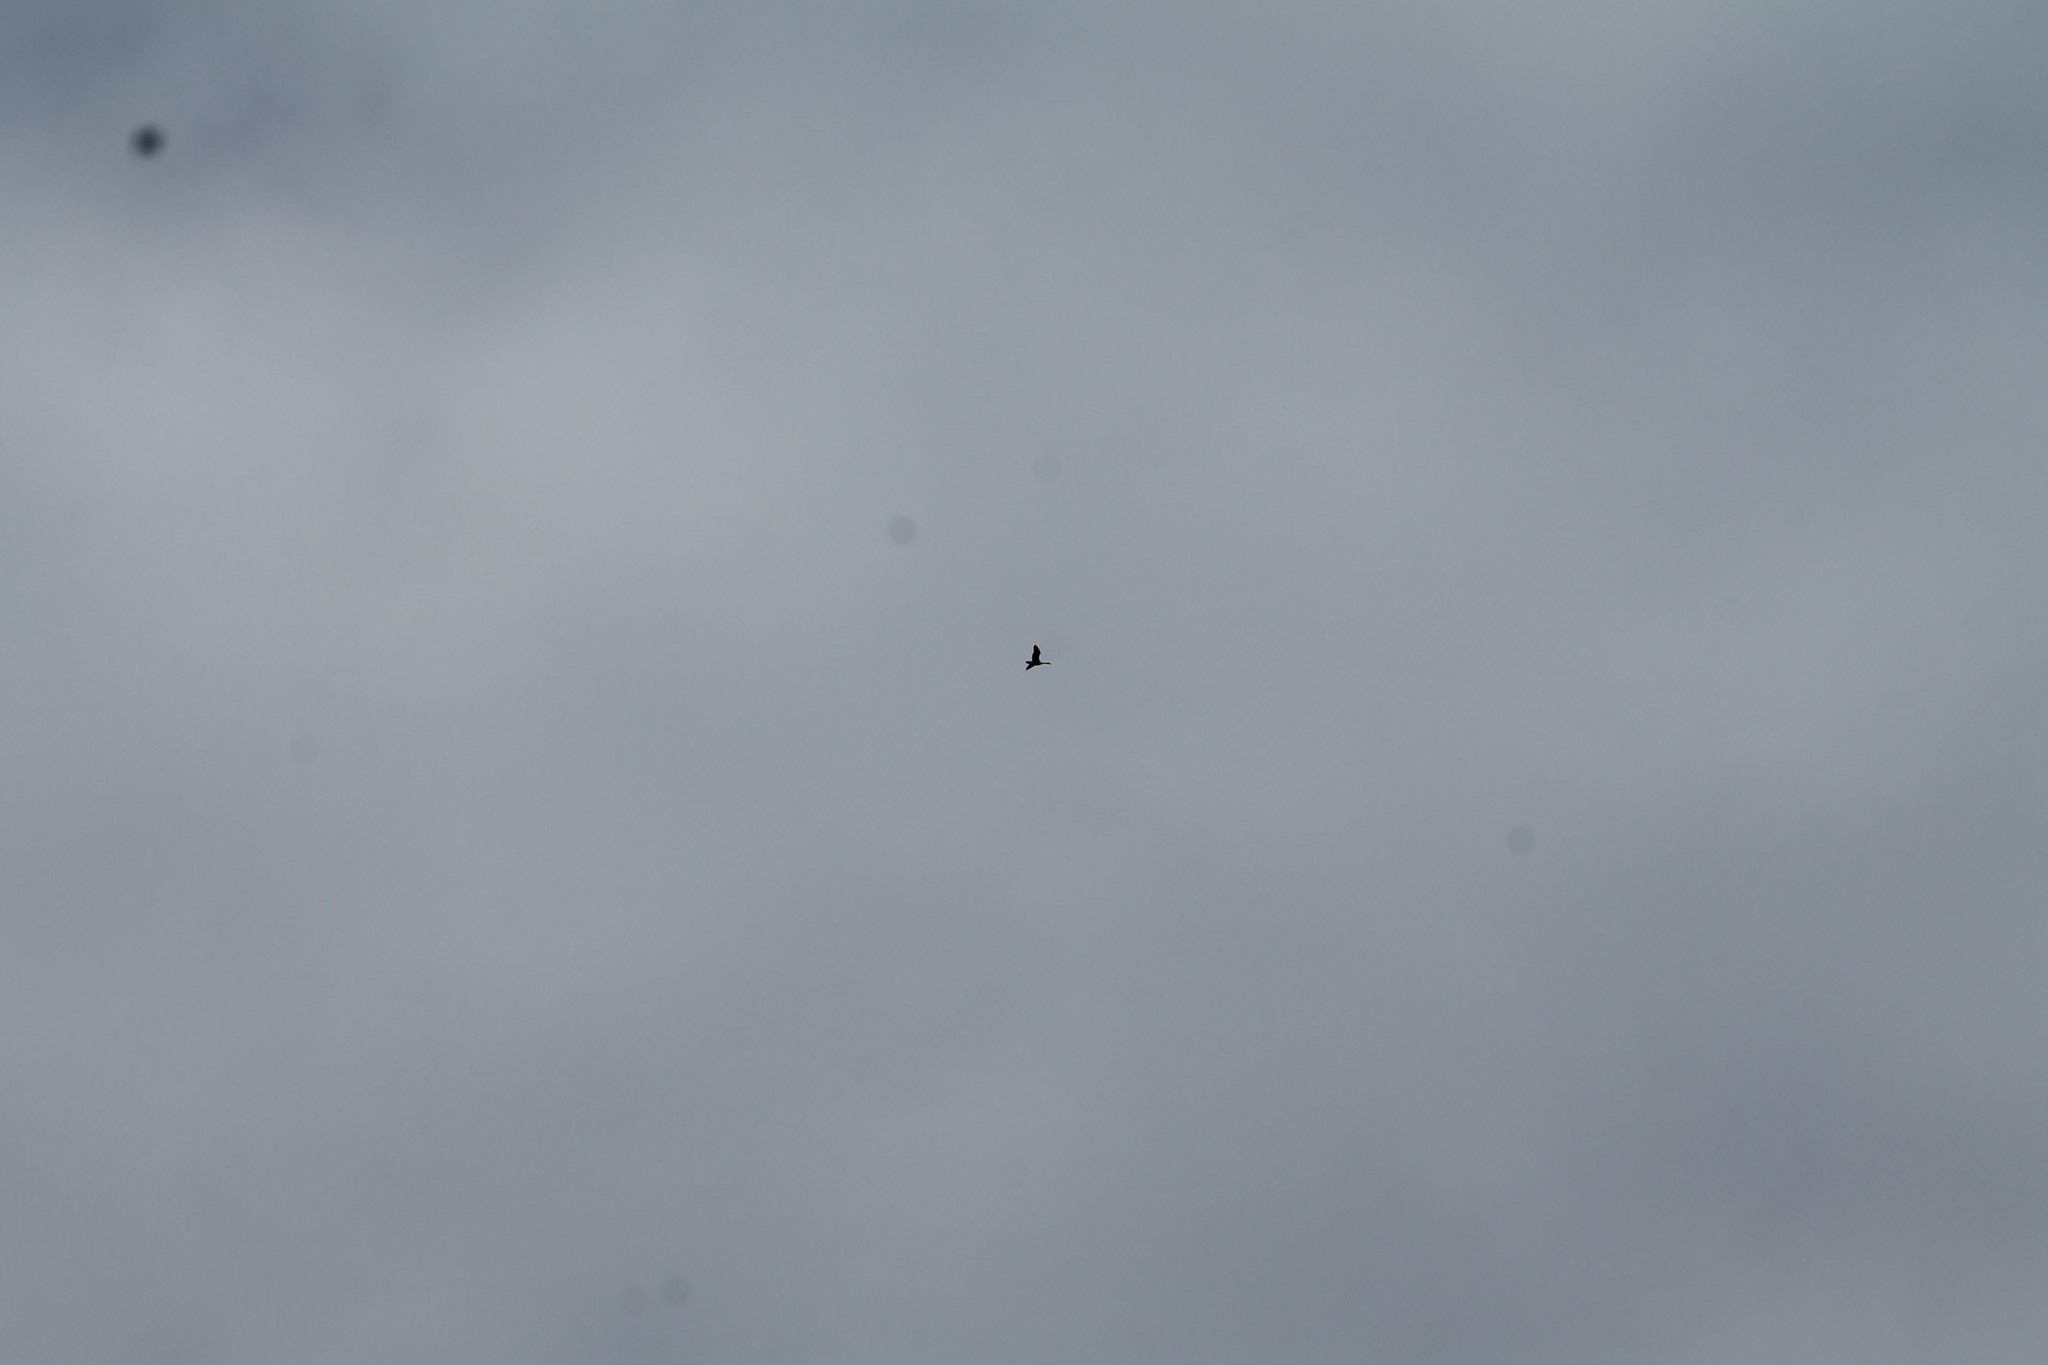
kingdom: Animalia
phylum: Chordata
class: Aves
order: Anseriformes
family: Anatidae
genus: Branta
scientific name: Branta canadensis
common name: Canada goose
